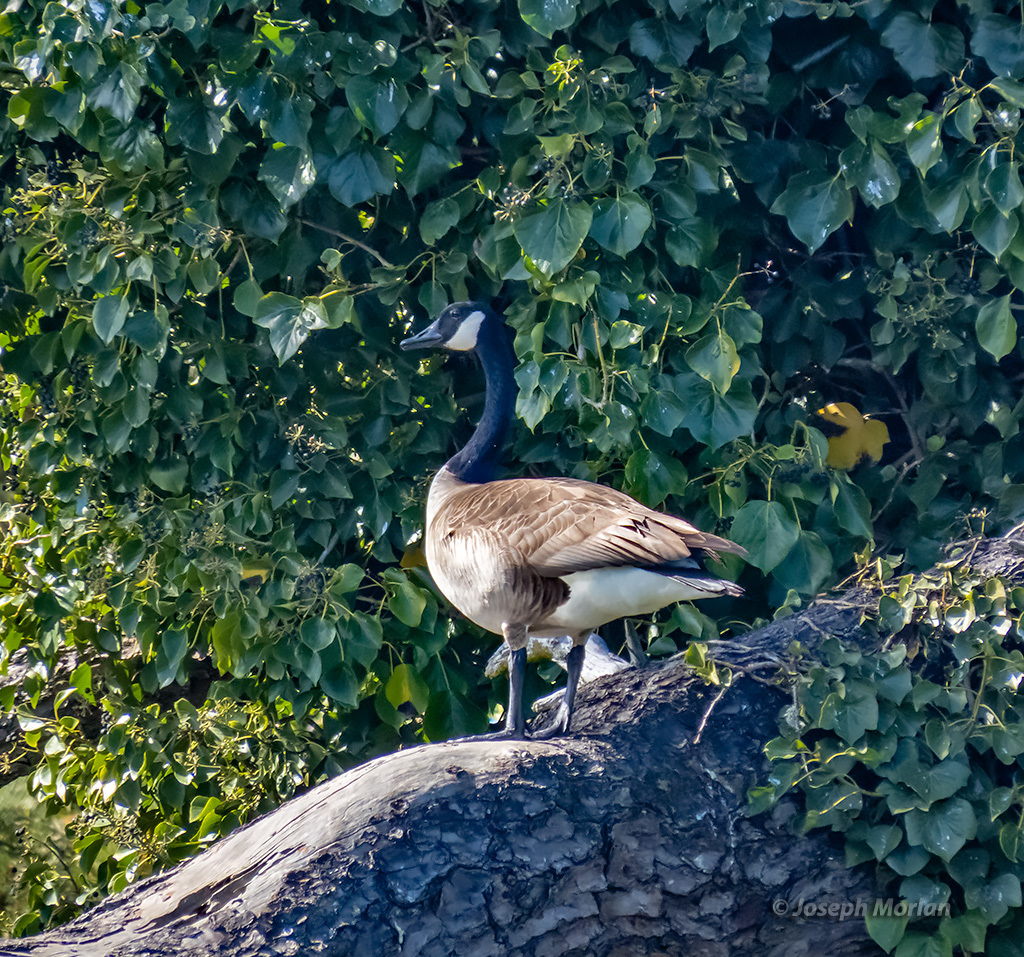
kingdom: Animalia
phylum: Chordata
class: Aves
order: Anseriformes
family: Anatidae
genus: Branta
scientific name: Branta canadensis
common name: Canada goose
